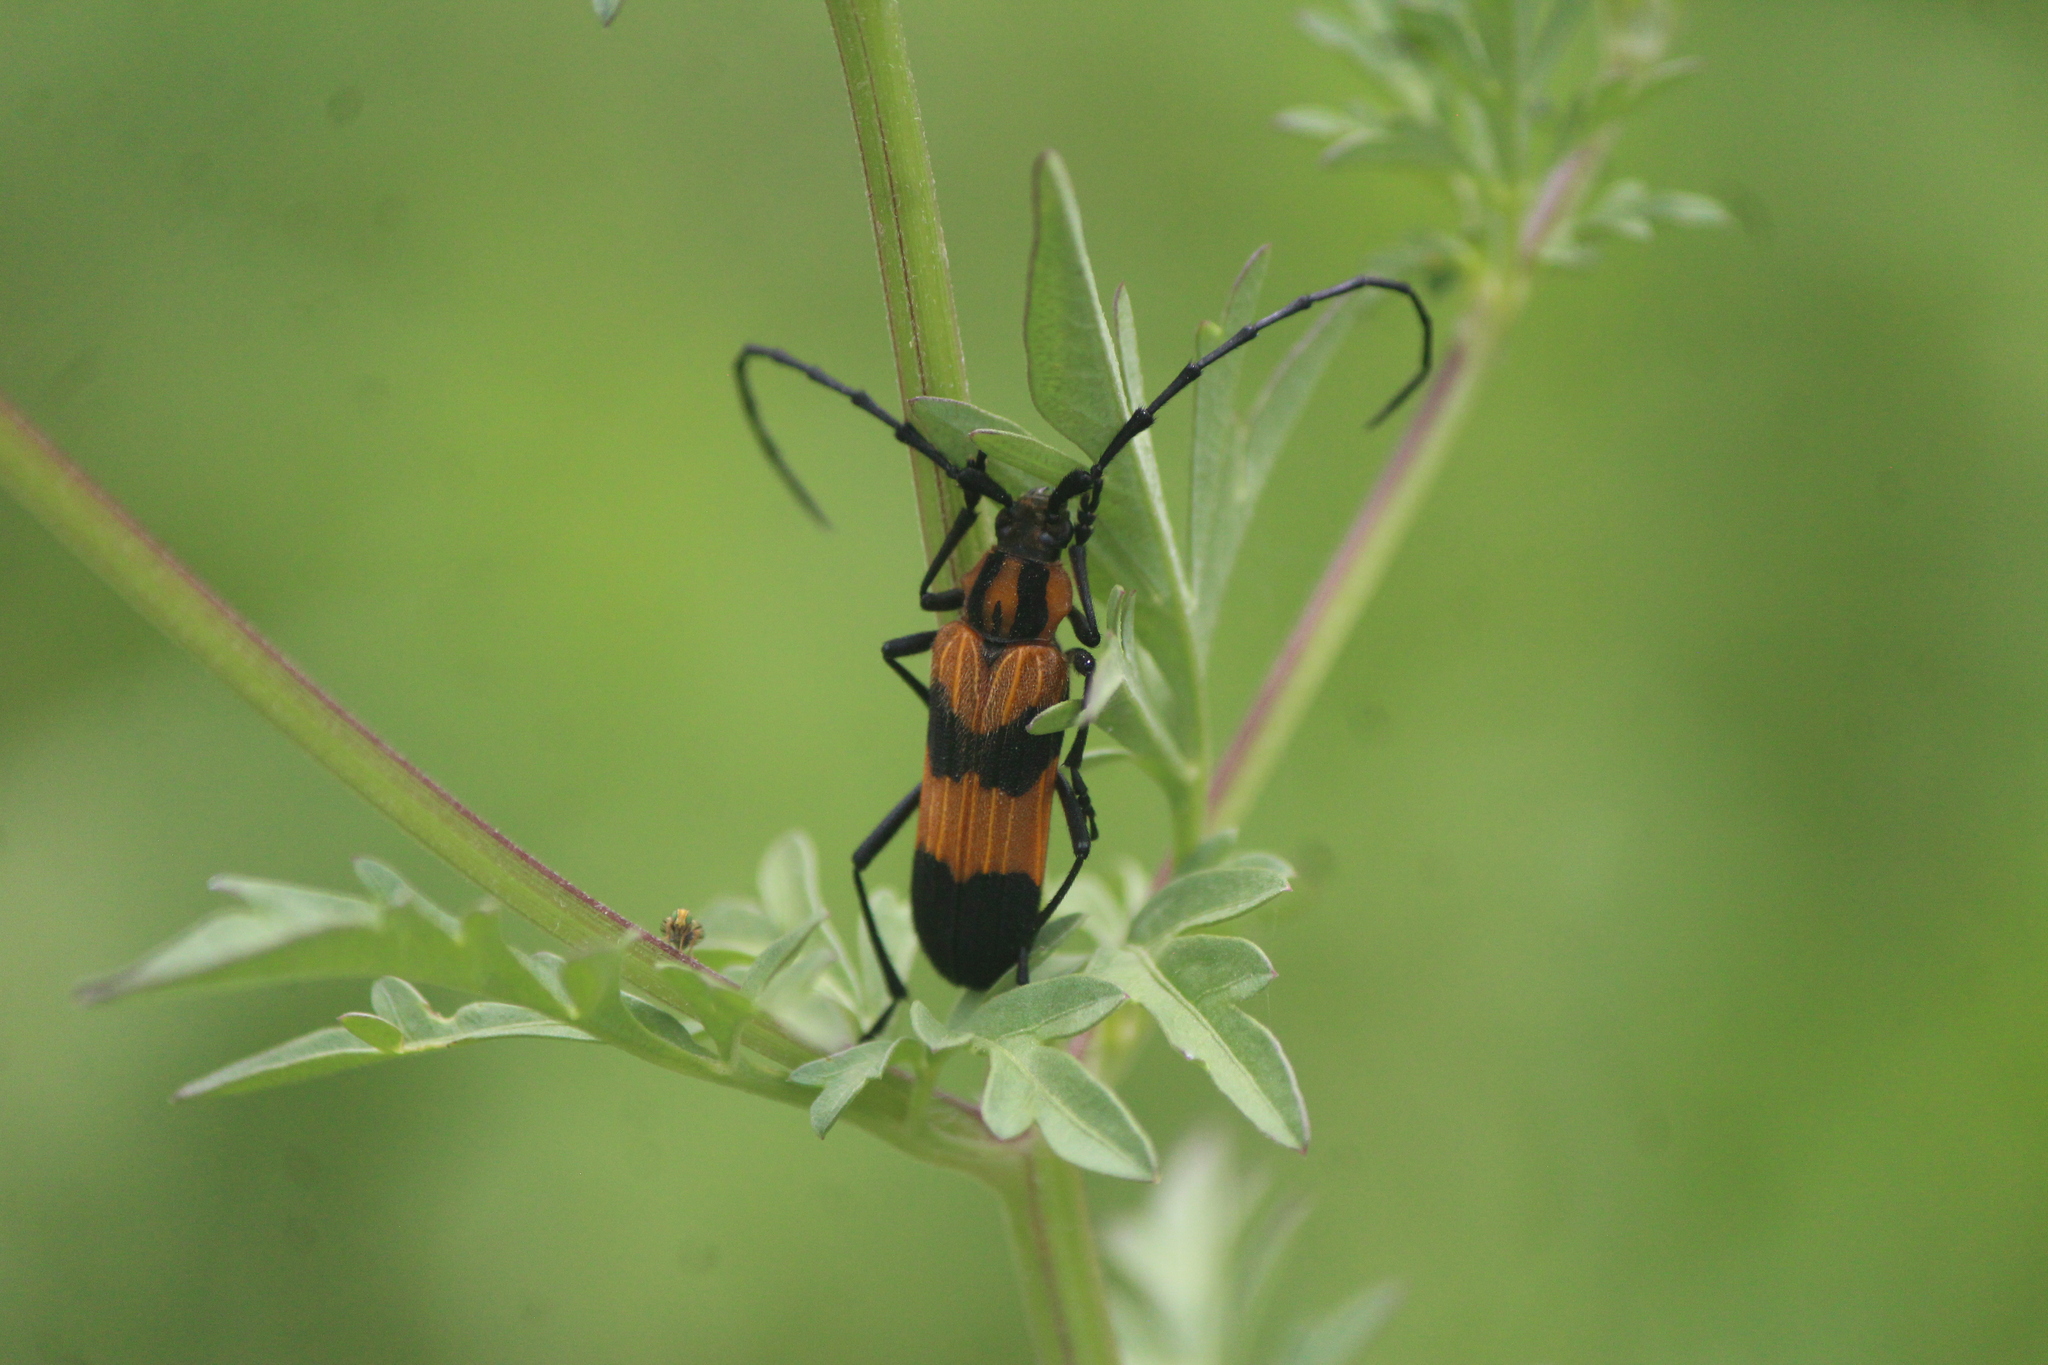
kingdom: Animalia
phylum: Arthropoda
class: Insecta
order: Coleoptera
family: Cerambycidae
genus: Parevander
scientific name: Parevander hovorei
